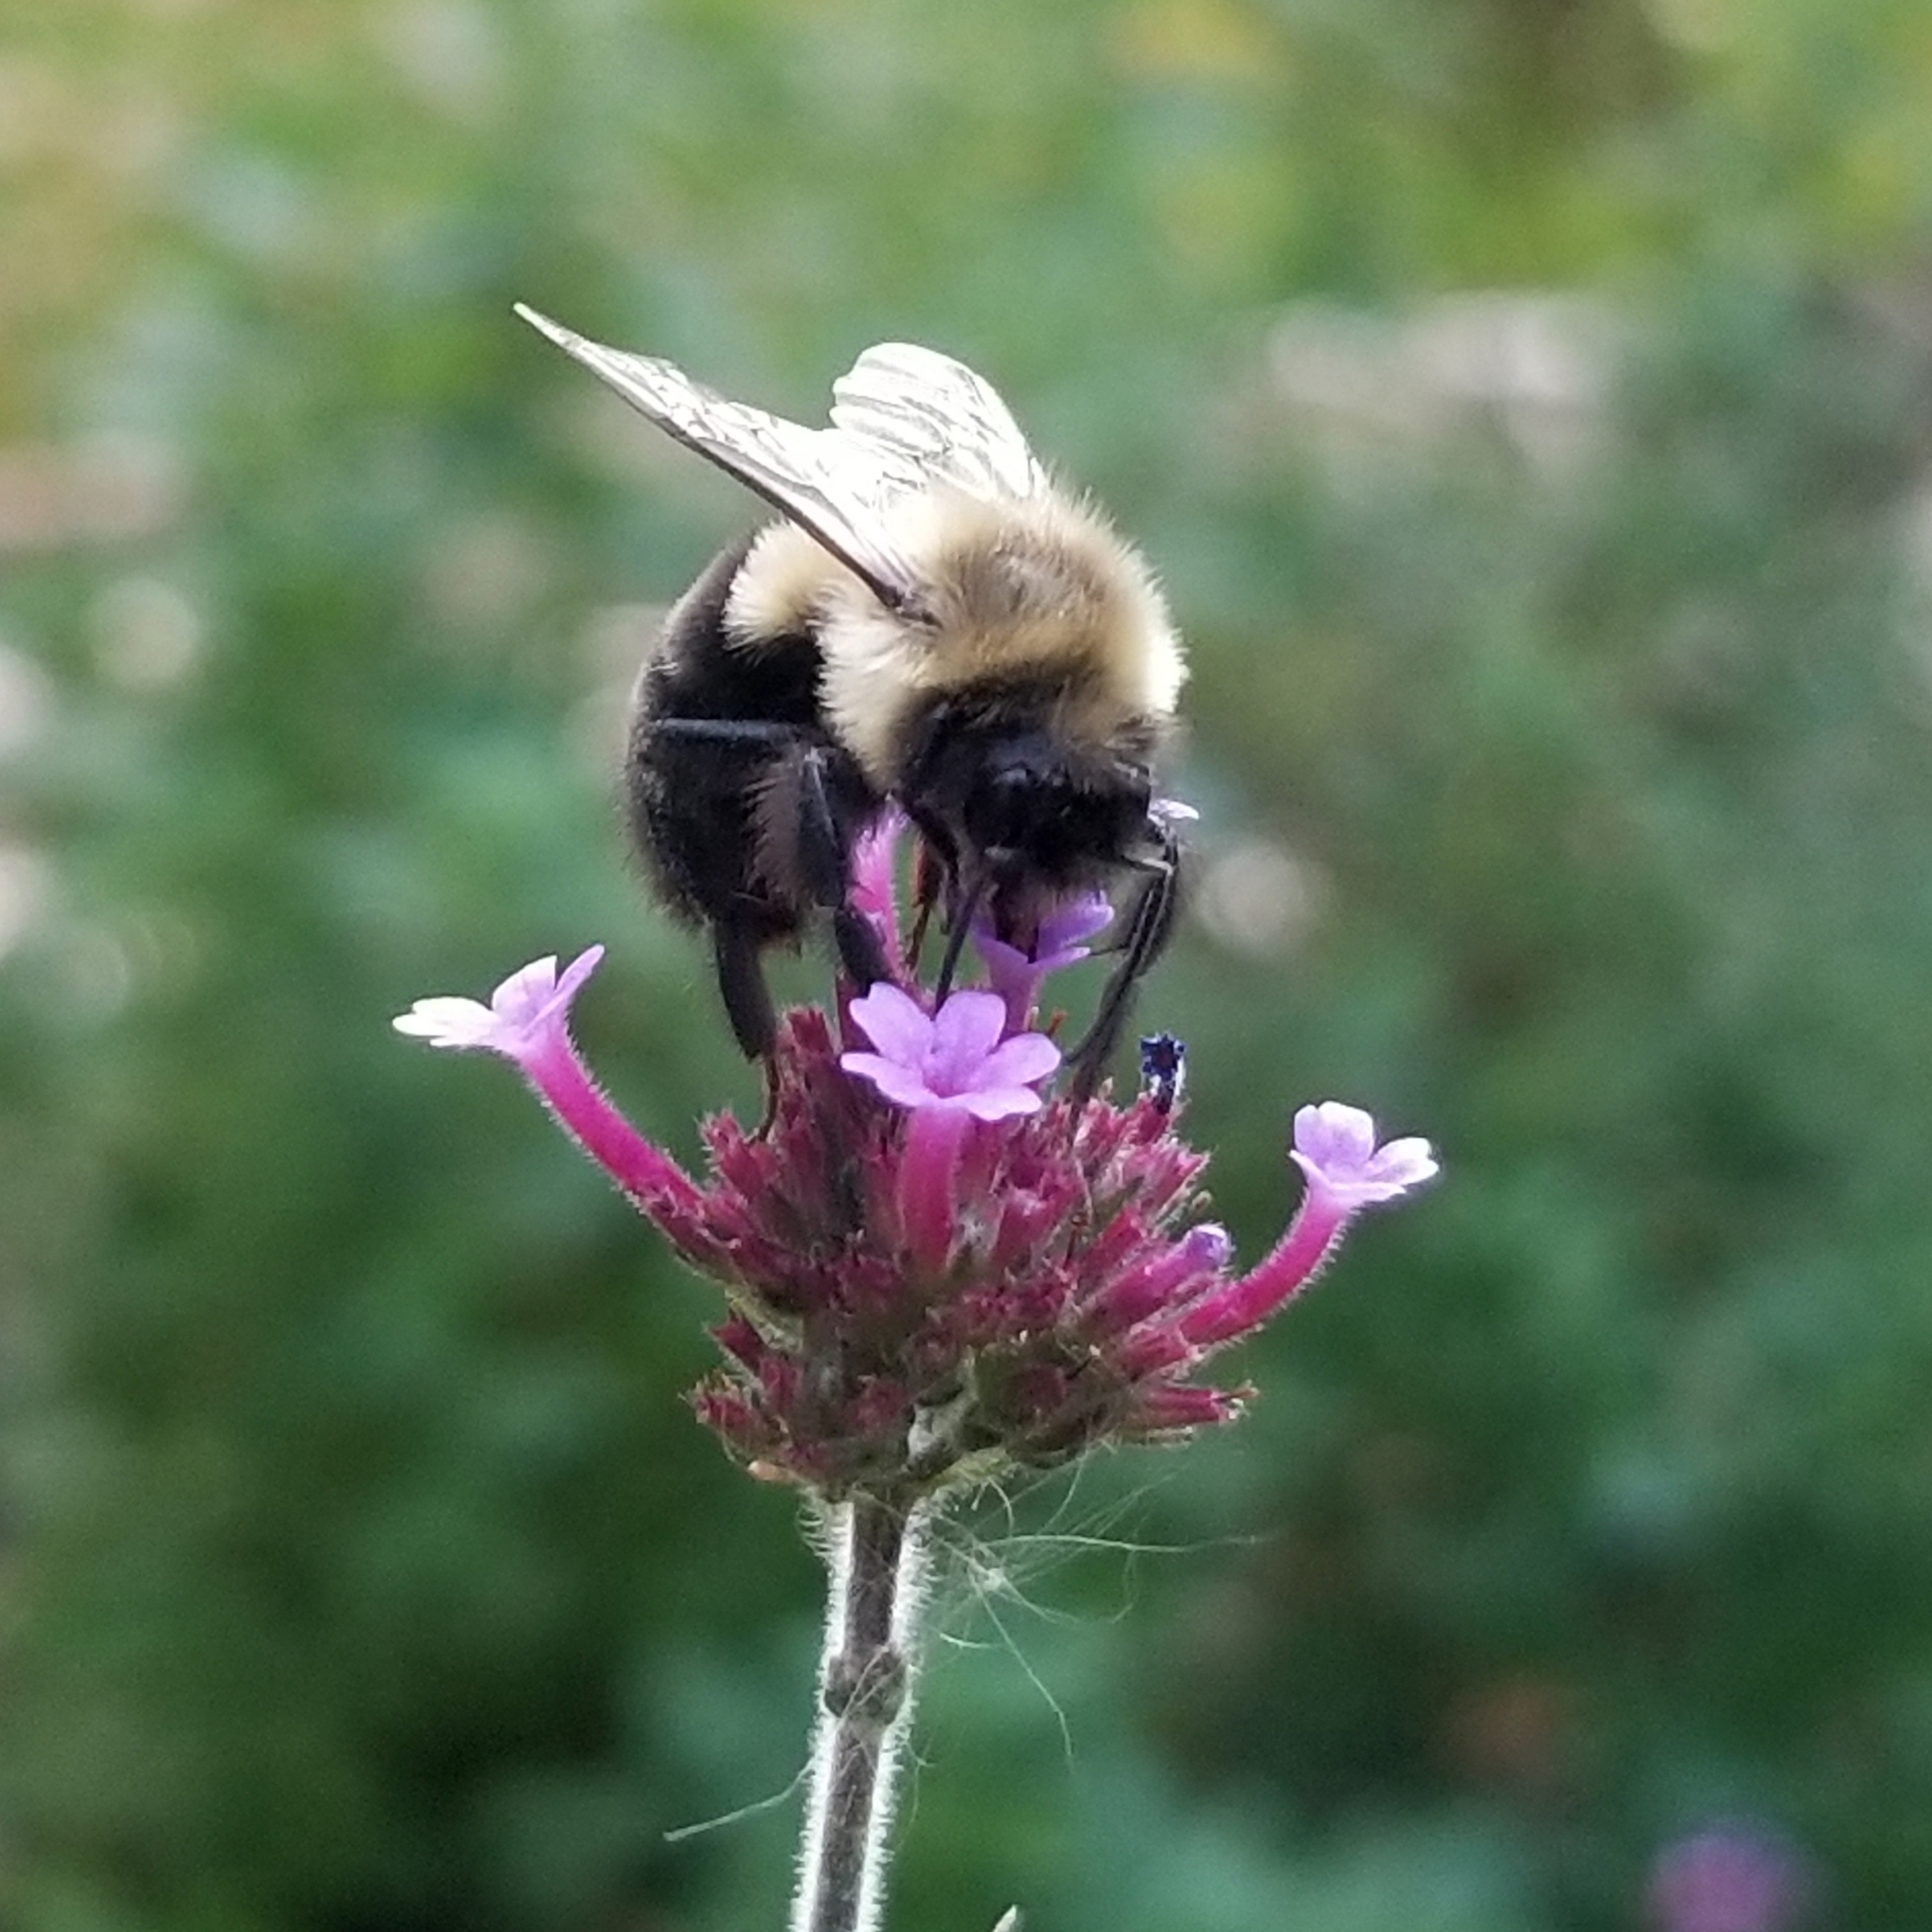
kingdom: Animalia
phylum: Arthropoda
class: Insecta
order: Hymenoptera
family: Apidae
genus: Bombus
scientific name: Bombus impatiens
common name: Common eastern bumble bee
